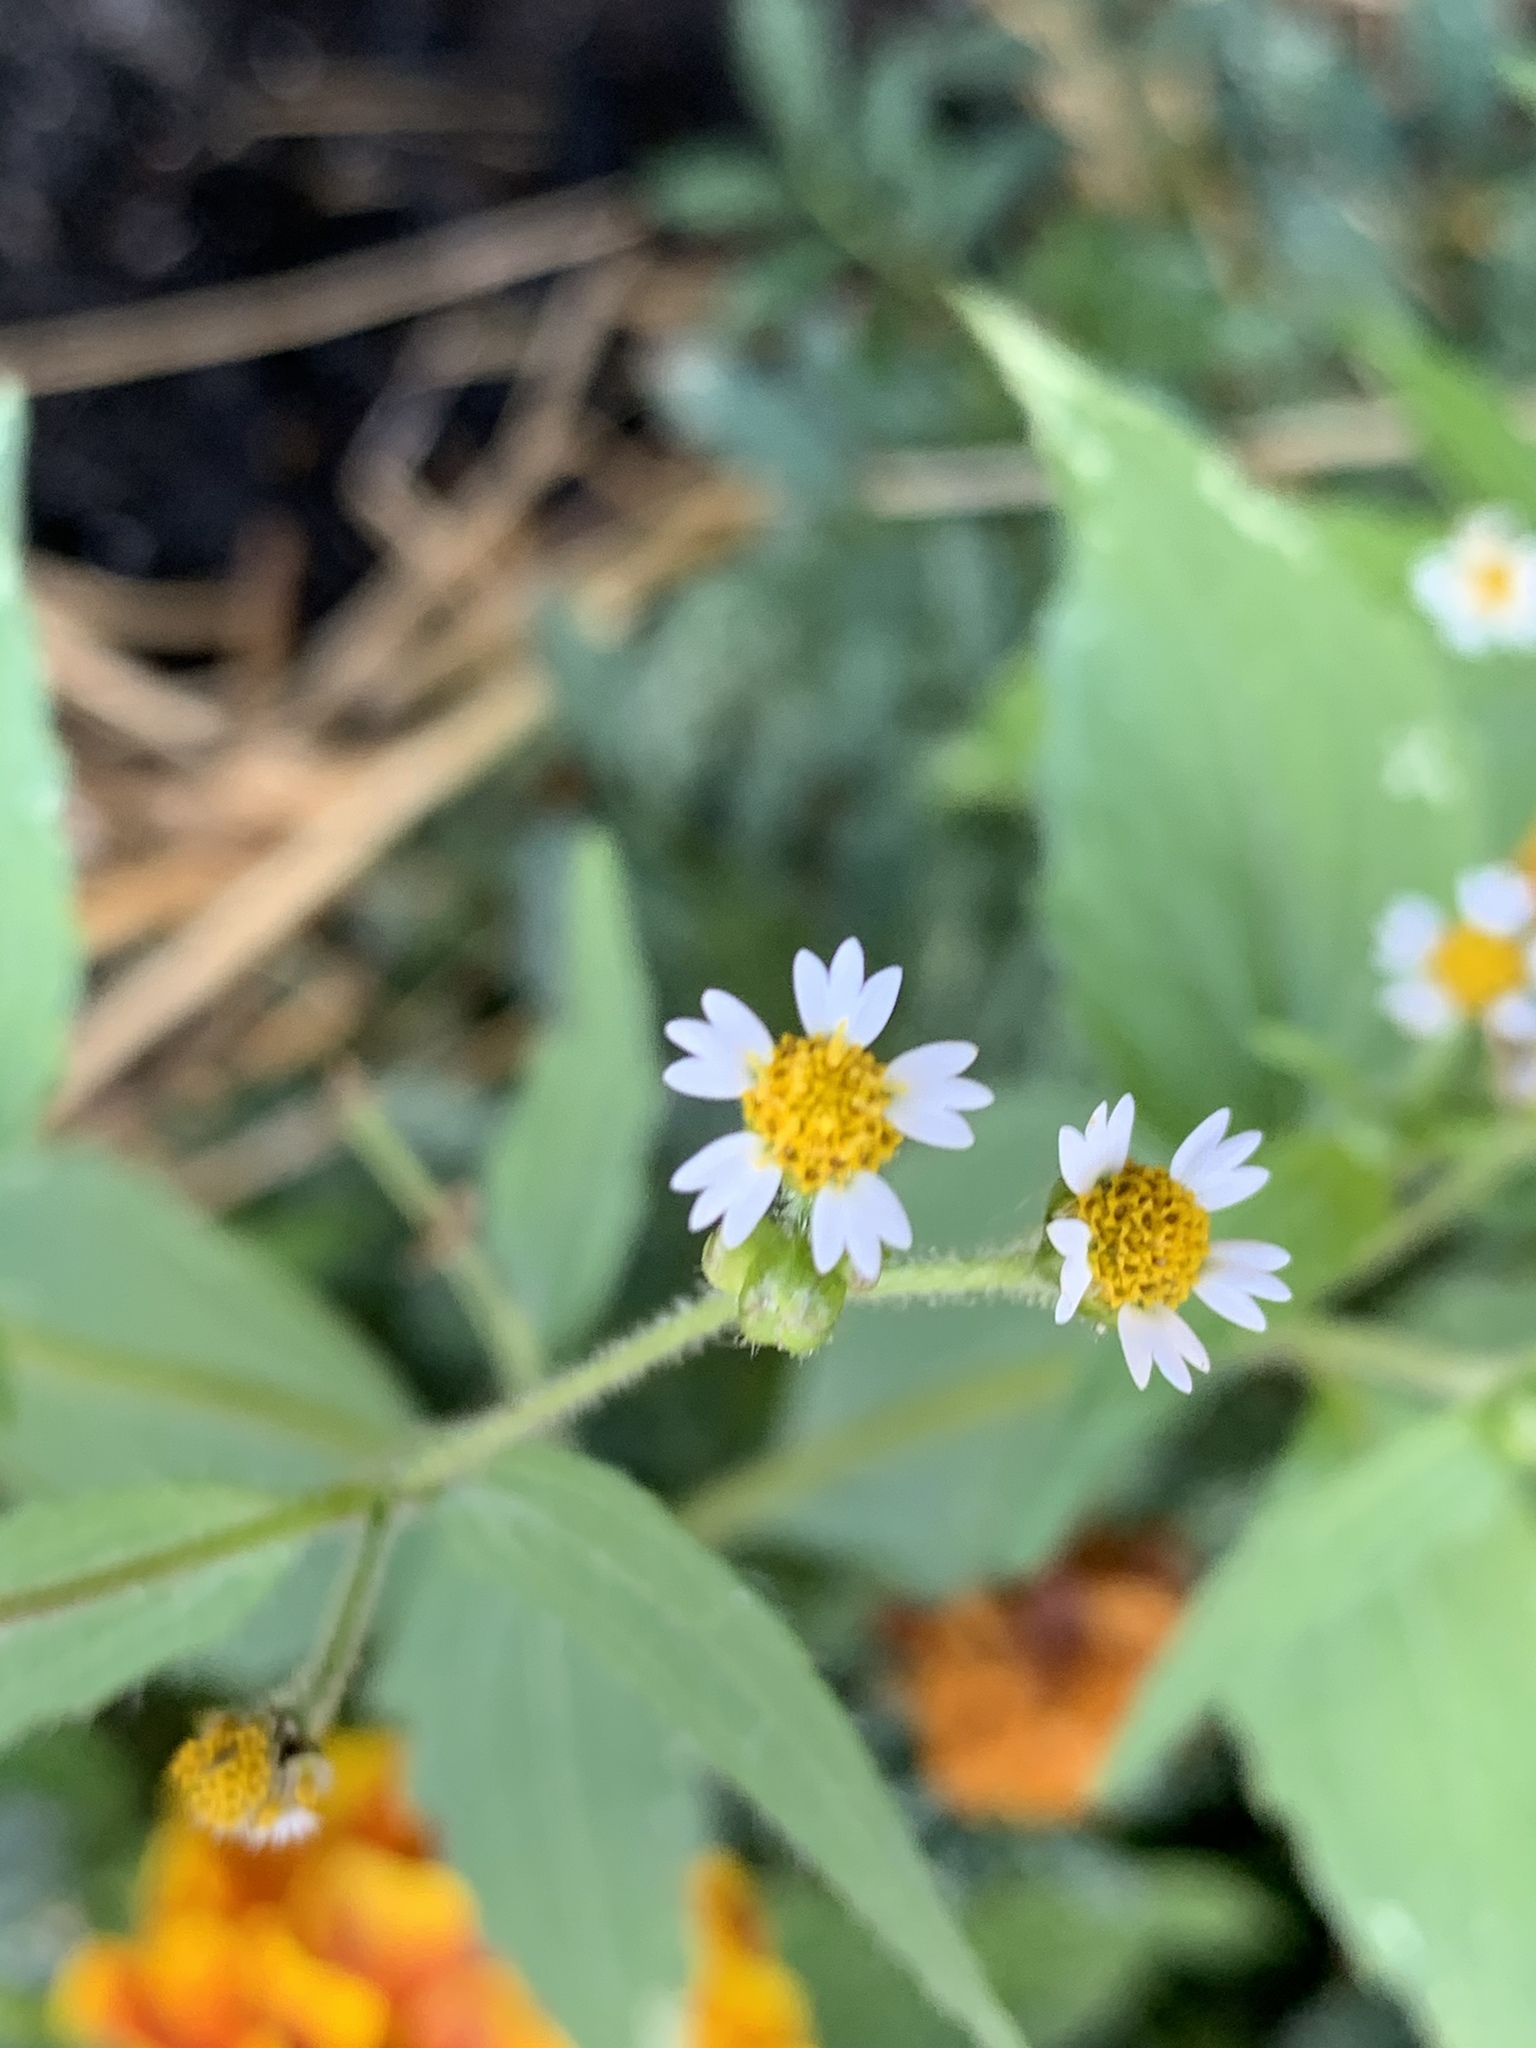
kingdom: Plantae
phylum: Tracheophyta
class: Magnoliopsida
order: Asterales
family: Asteraceae
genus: Galinsoga
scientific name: Galinsoga quadriradiata
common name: Shaggy soldier
